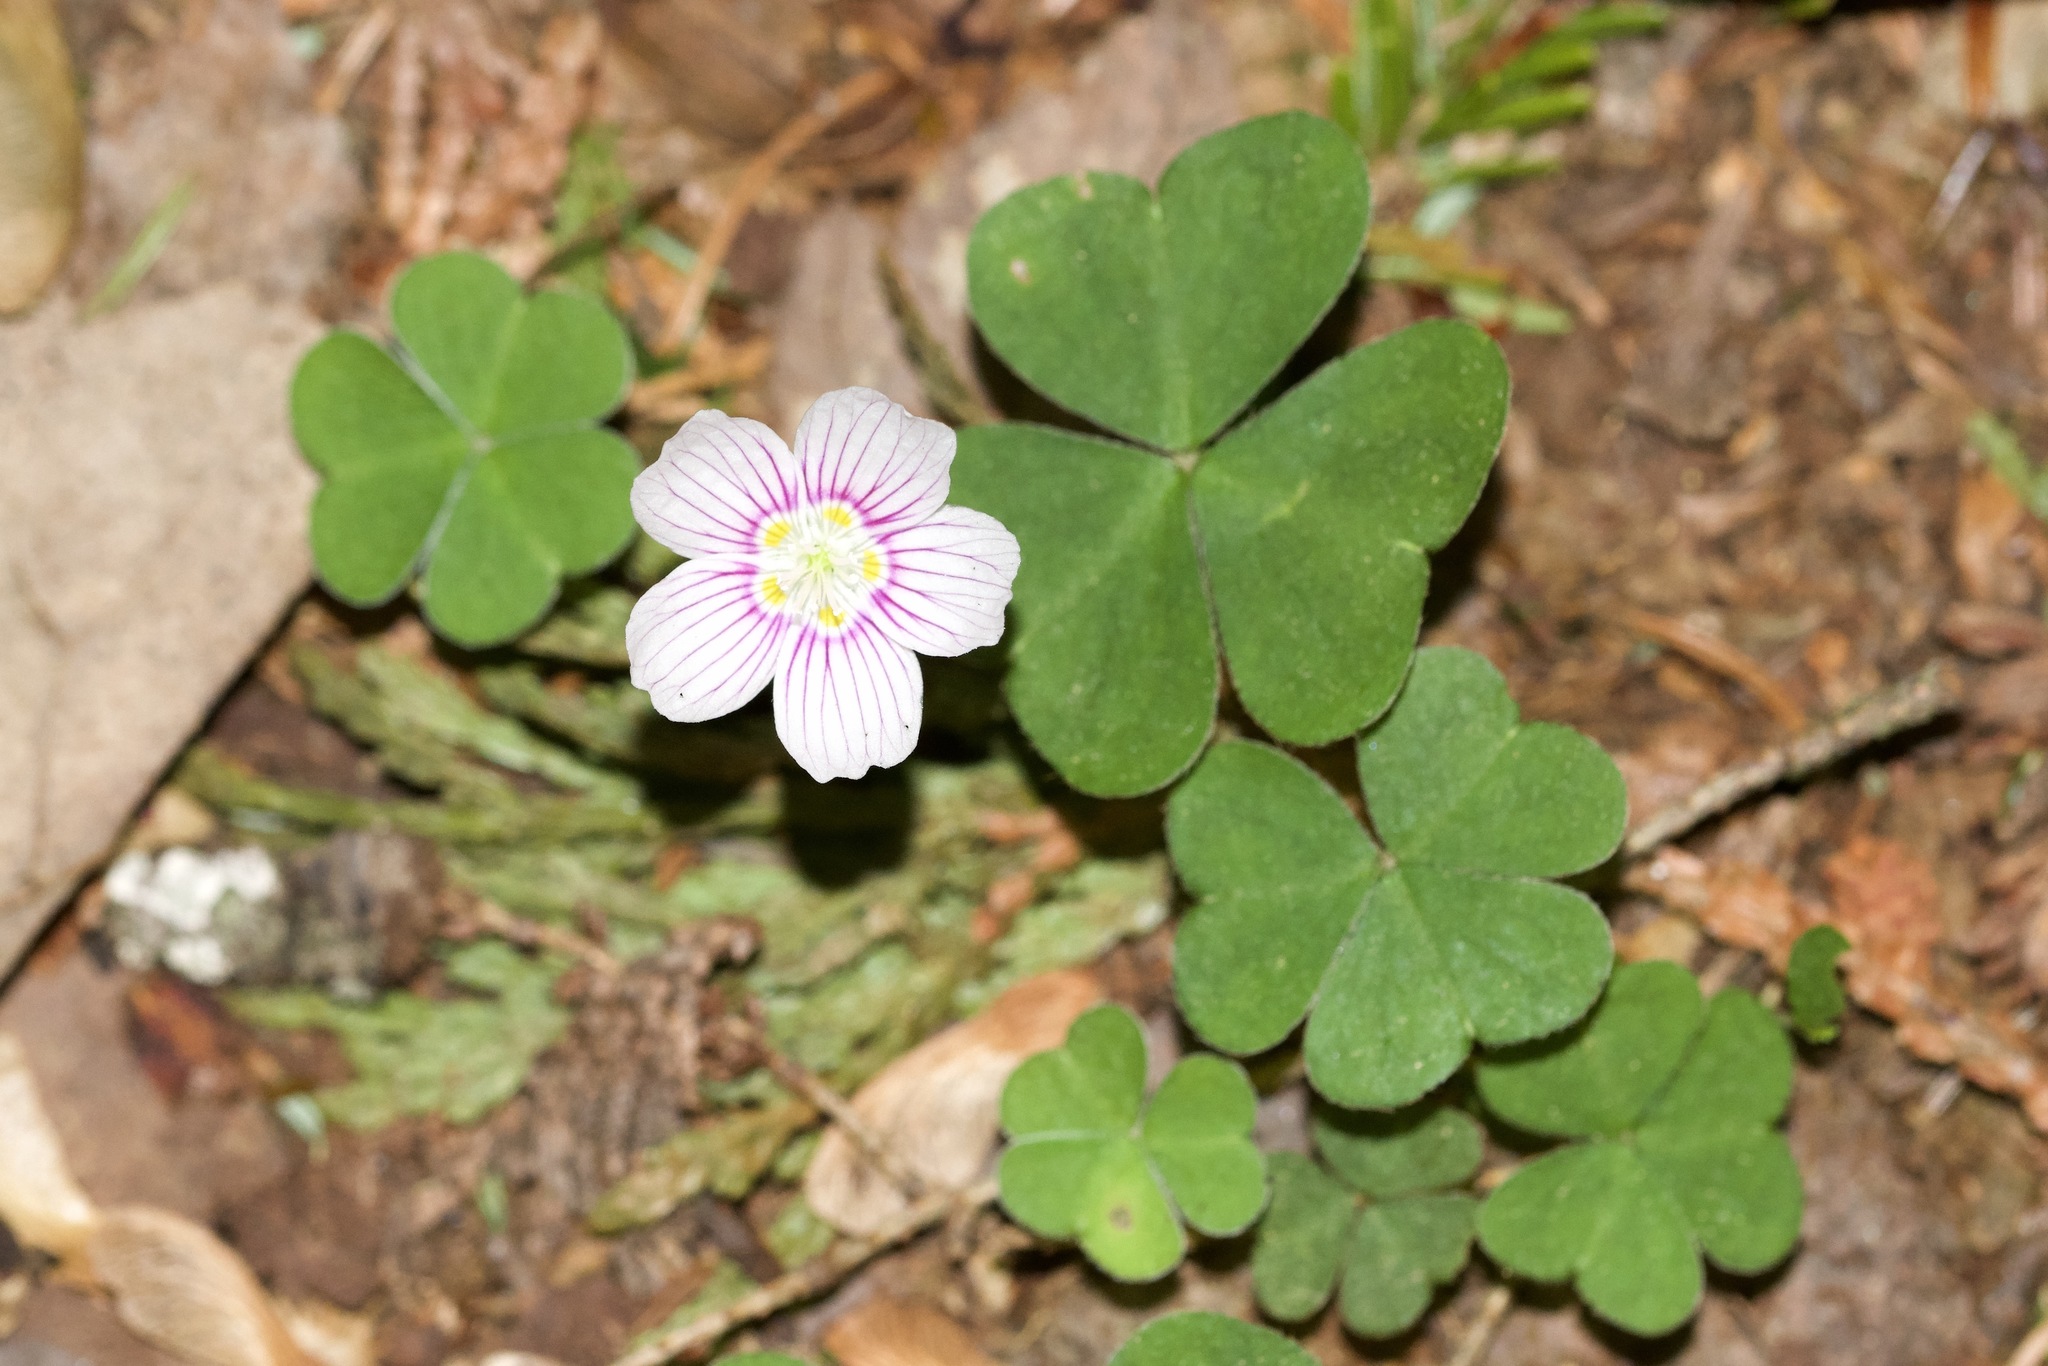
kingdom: Plantae
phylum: Tracheophyta
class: Magnoliopsida
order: Oxalidales
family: Oxalidaceae
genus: Oxalis
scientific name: Oxalis montana
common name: American wood-sorrel
